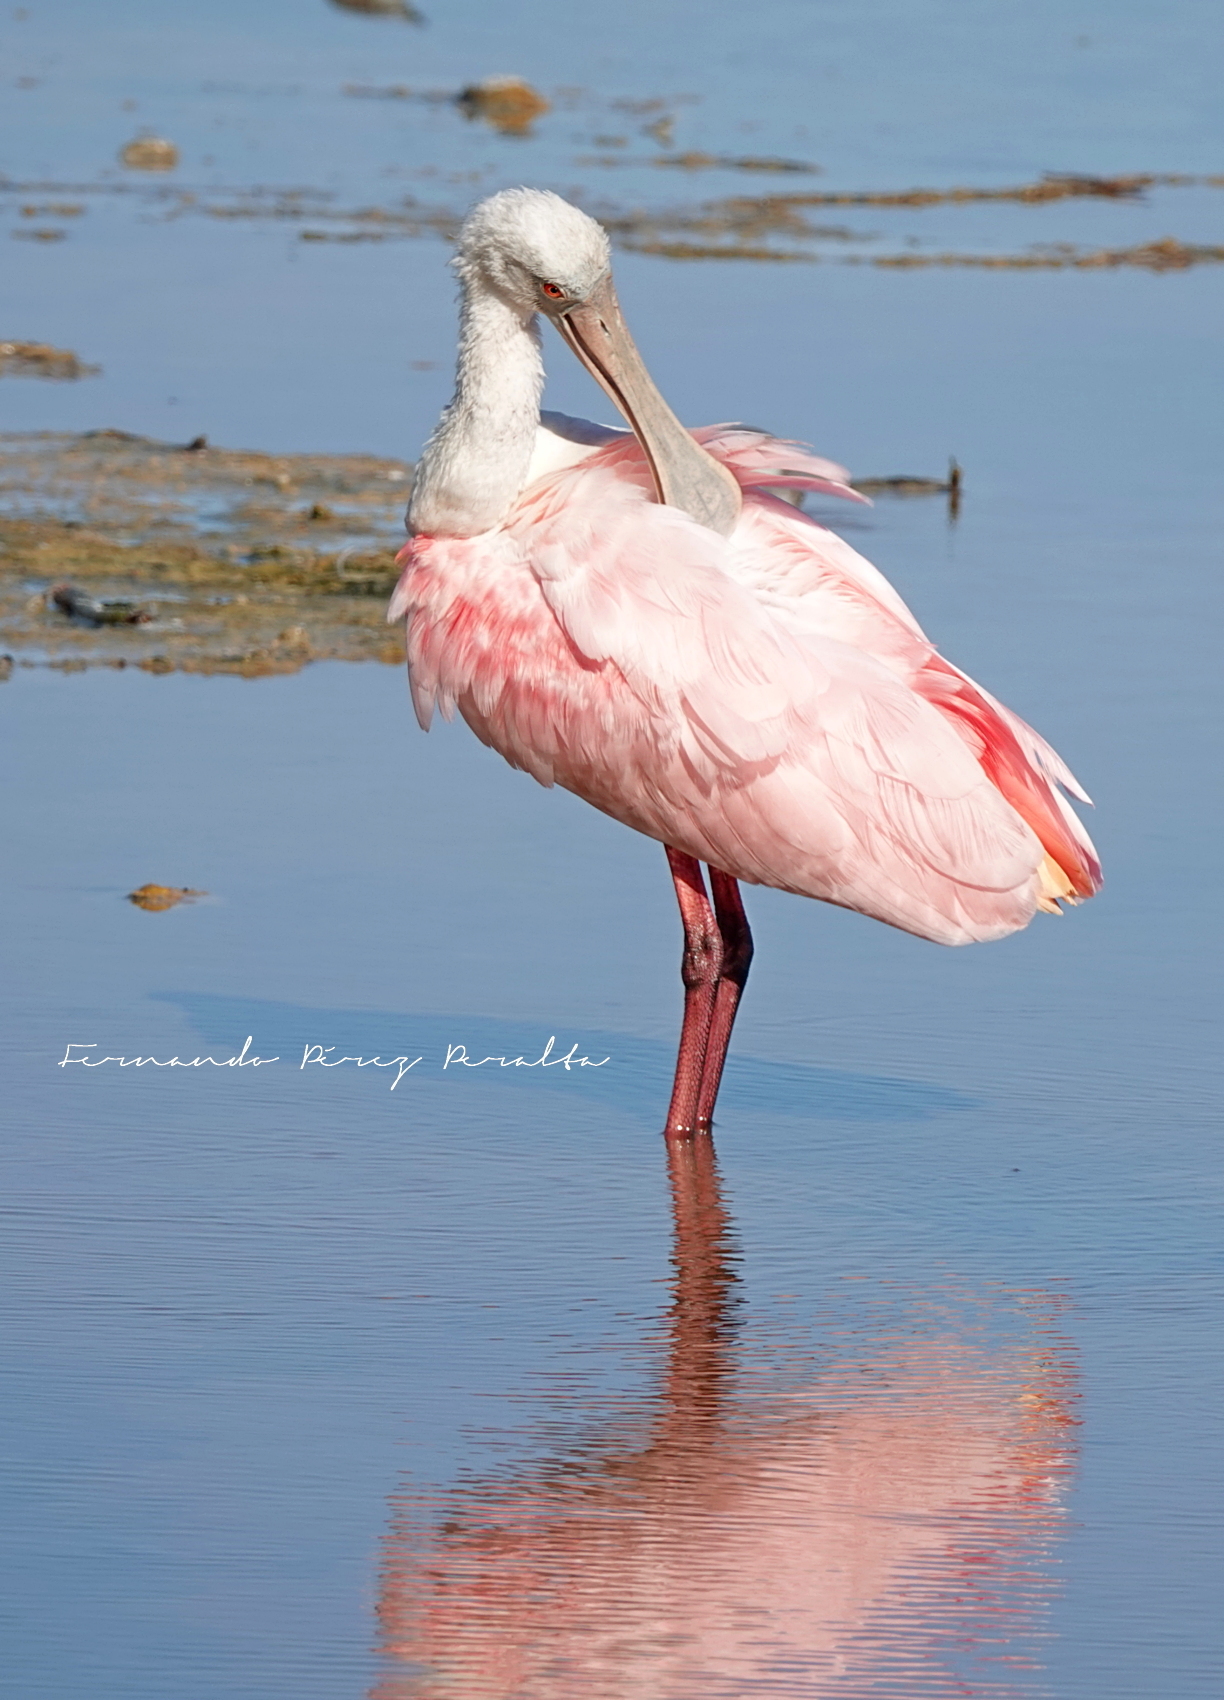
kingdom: Animalia
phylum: Chordata
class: Aves
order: Pelecaniformes
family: Threskiornithidae
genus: Platalea
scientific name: Platalea ajaja
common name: Roseate spoonbill
